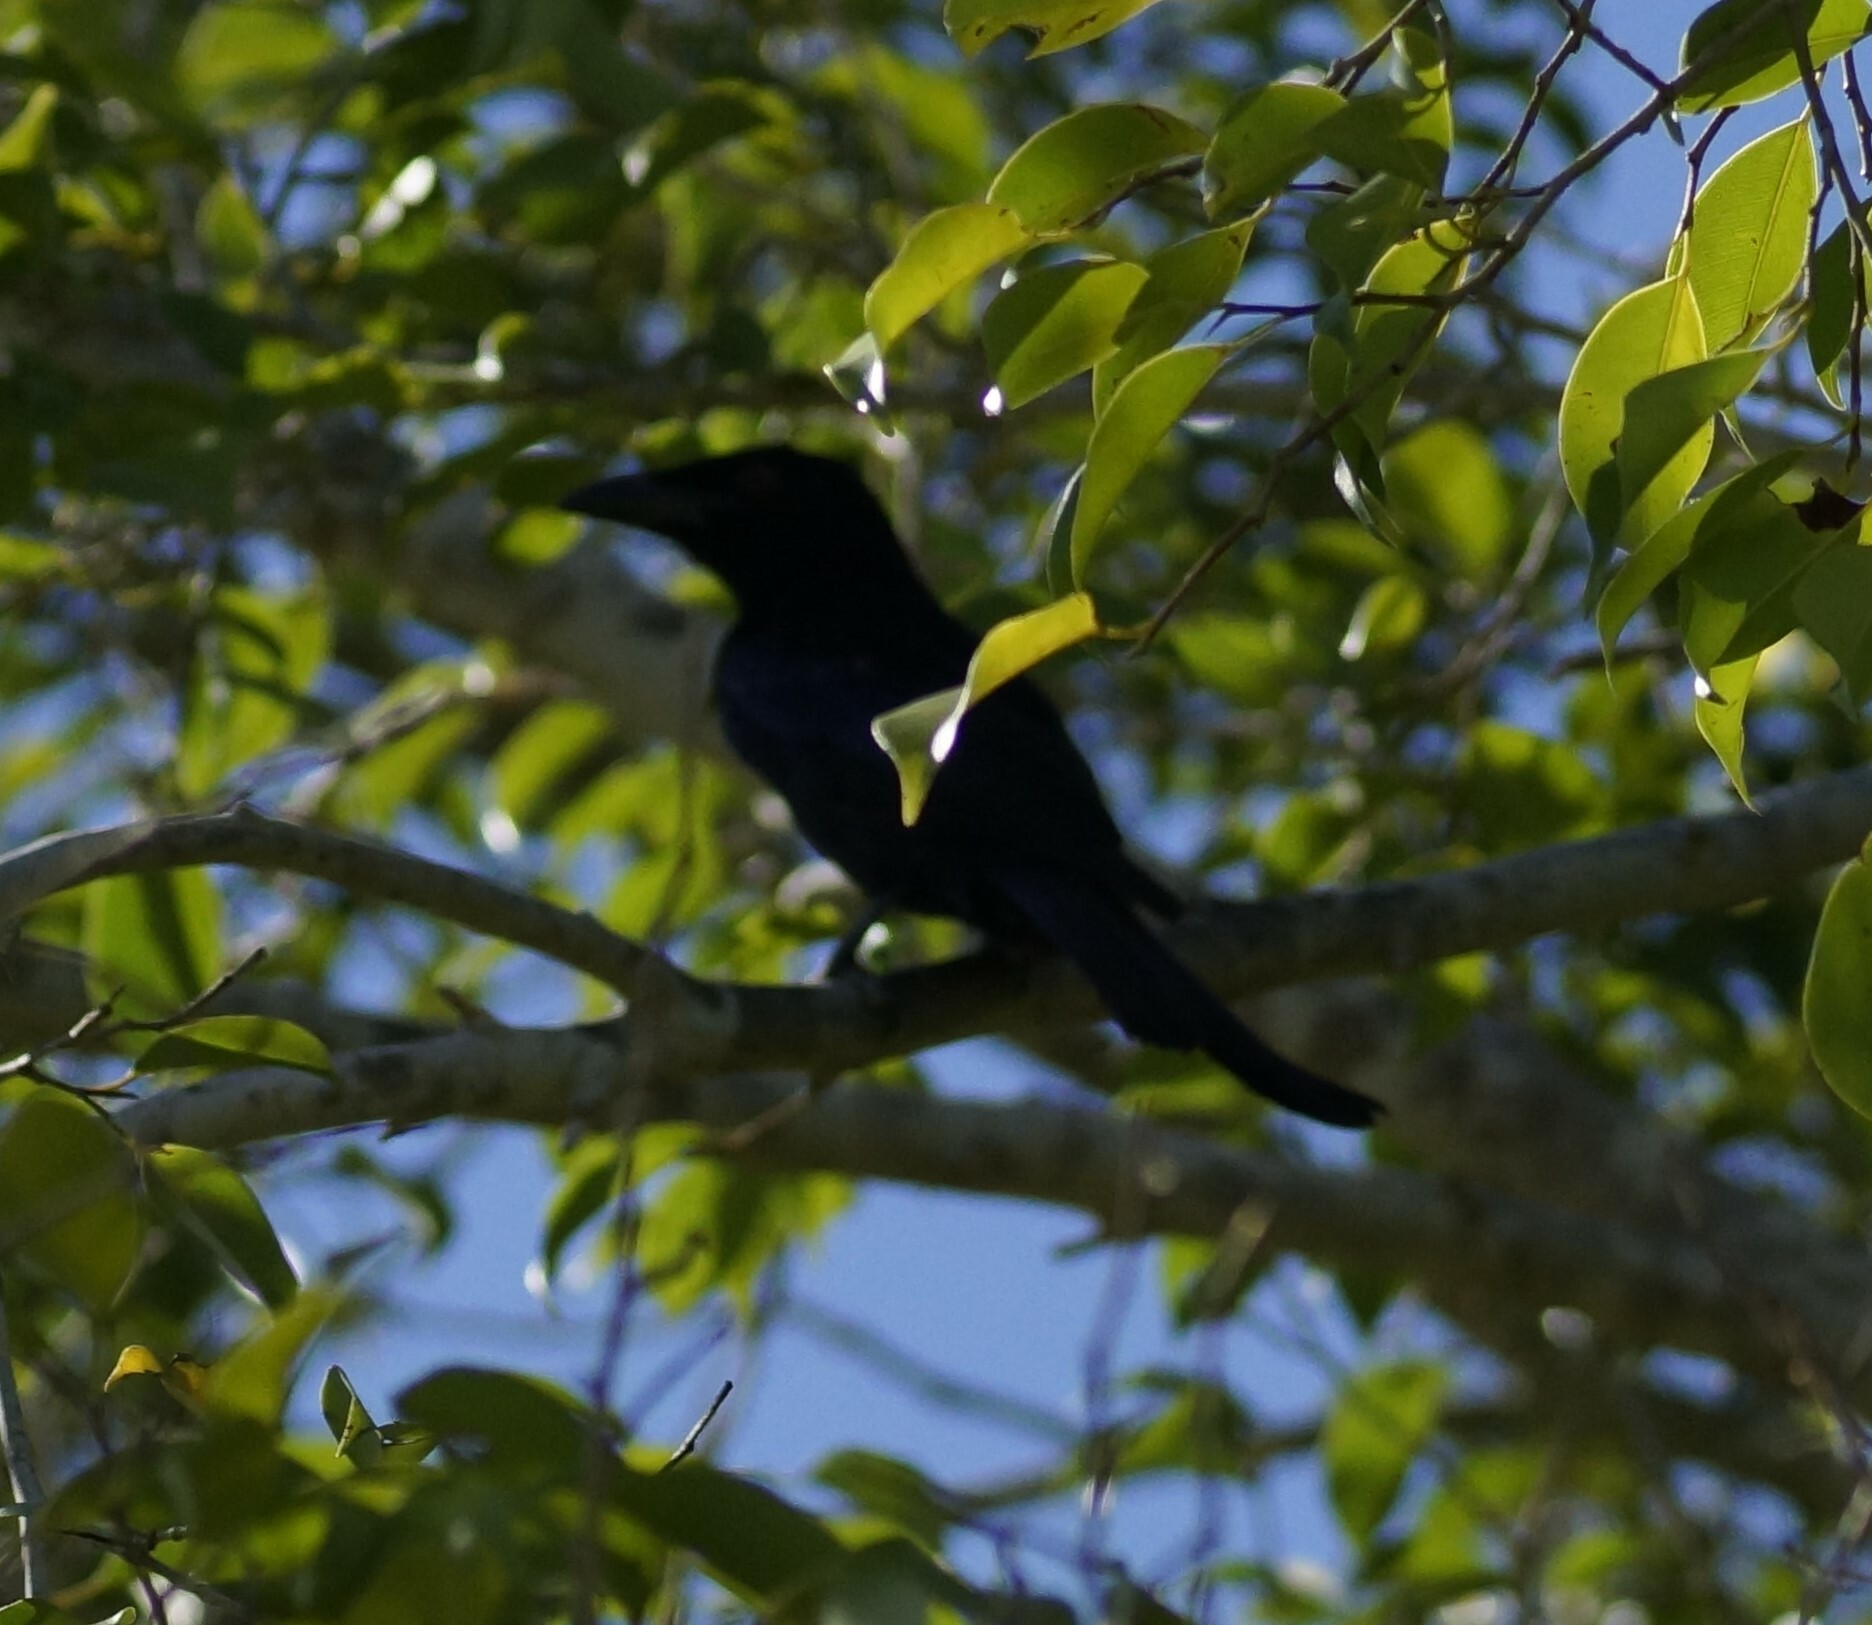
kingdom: Animalia
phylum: Chordata
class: Aves
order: Passeriformes
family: Dicruridae
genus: Dicrurus
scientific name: Dicrurus bracteatus
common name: Spangled drongo
